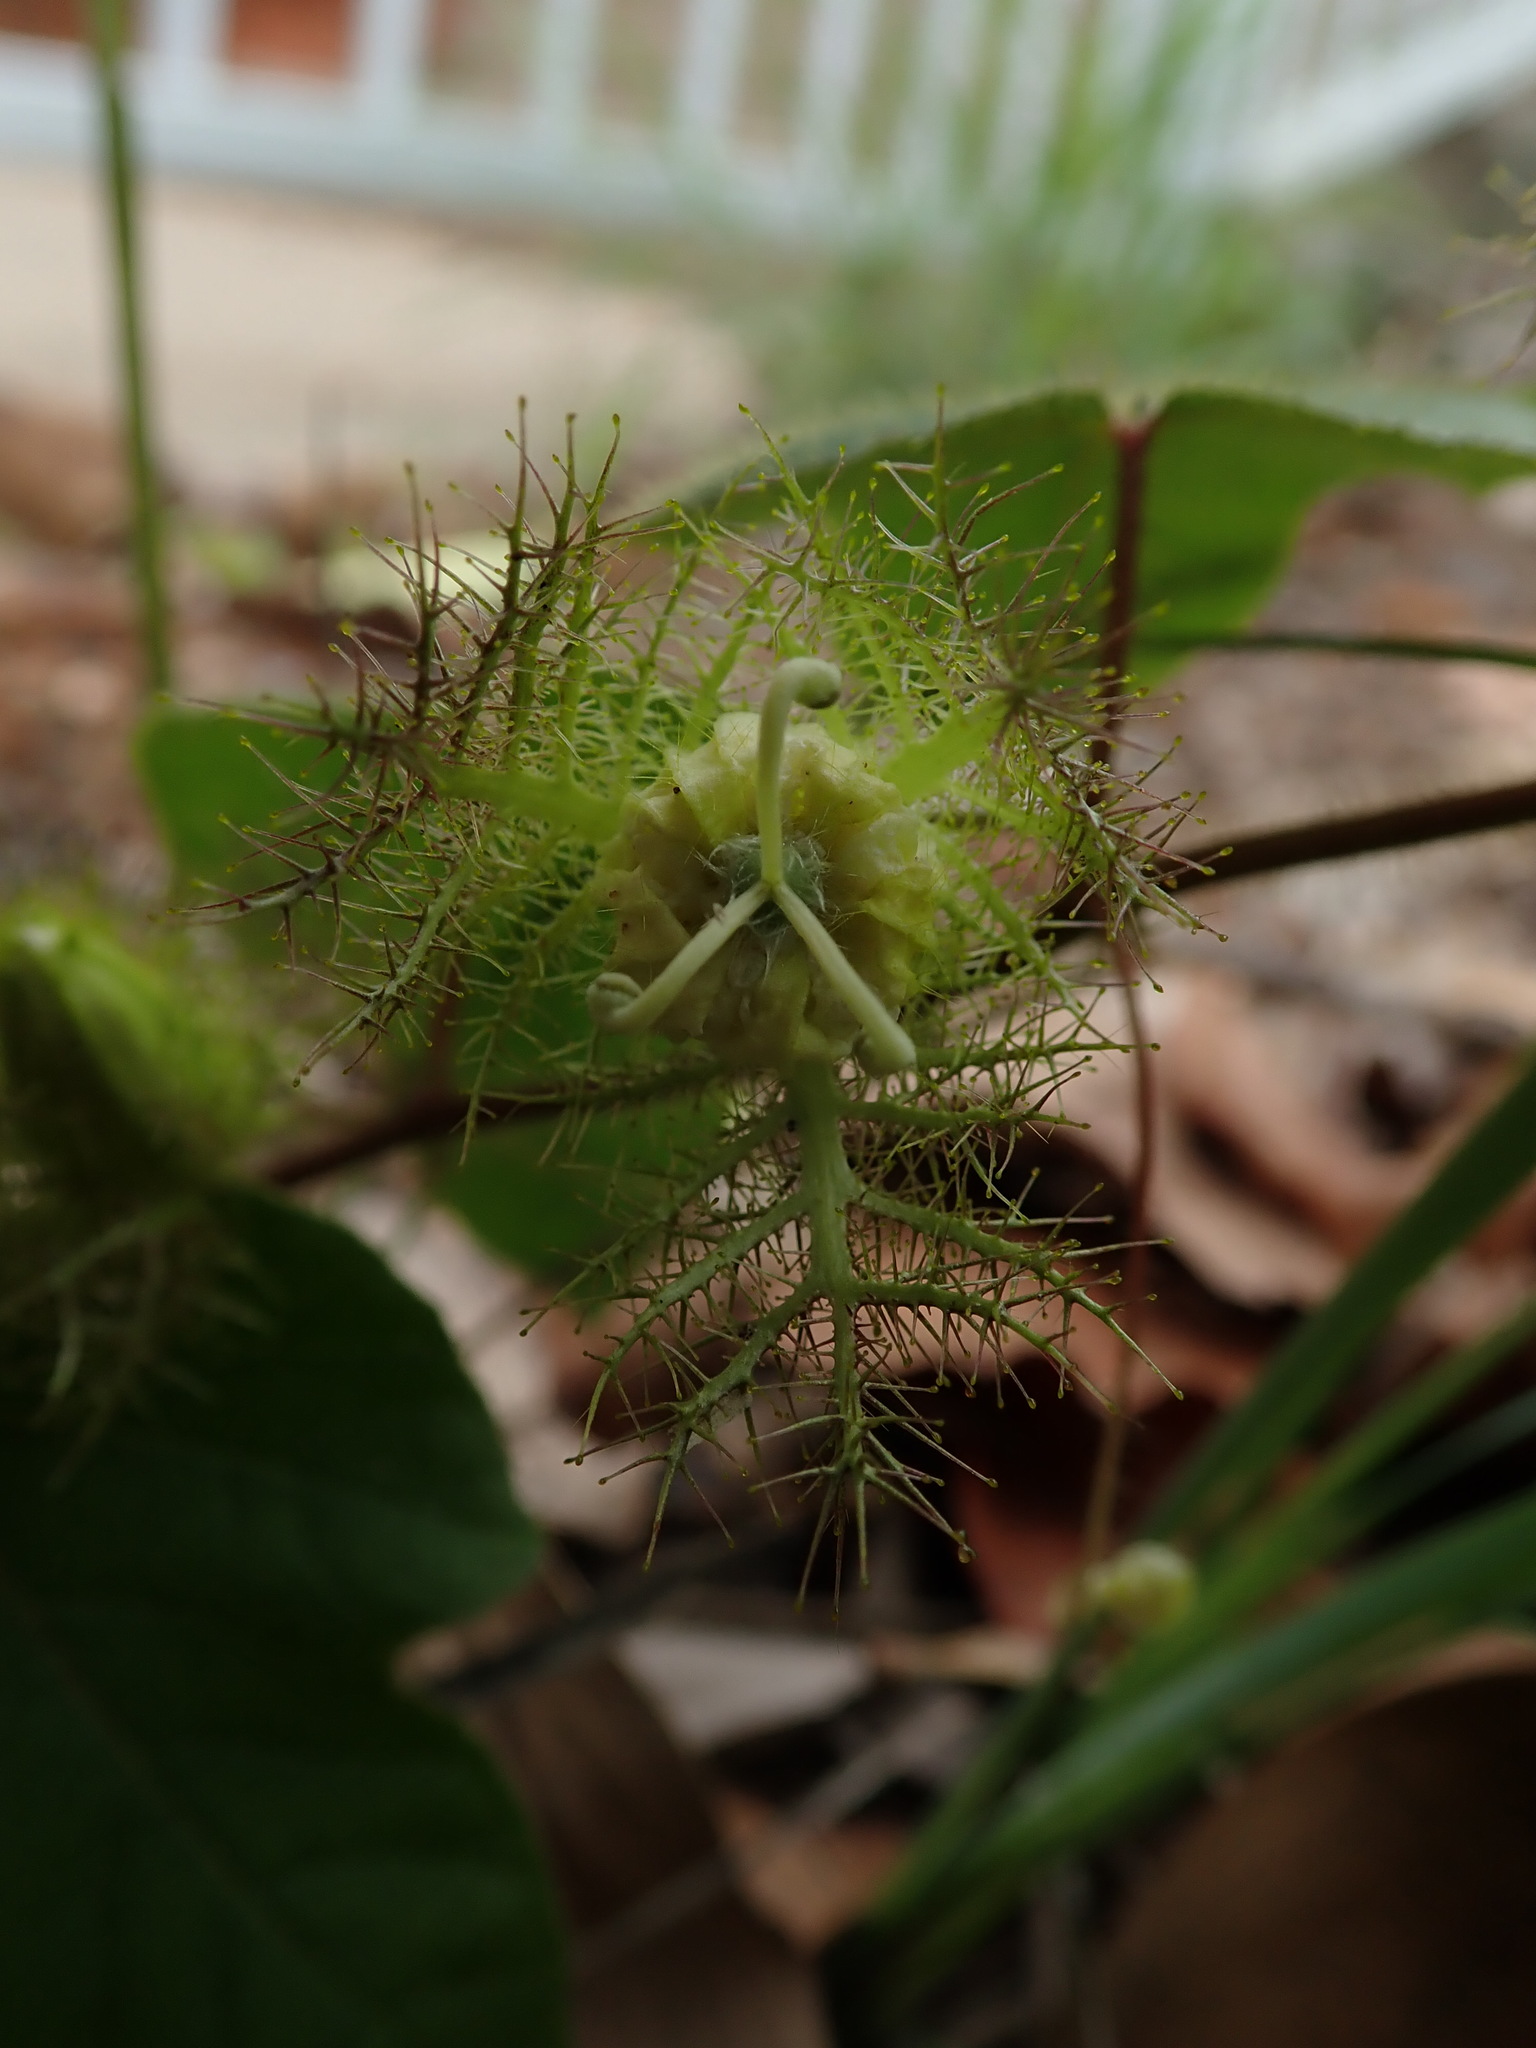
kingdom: Plantae
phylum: Tracheophyta
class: Magnoliopsida
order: Malpighiales
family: Passifloraceae
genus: Passiflora
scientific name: Passiflora foetida
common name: Fetid passionflower
